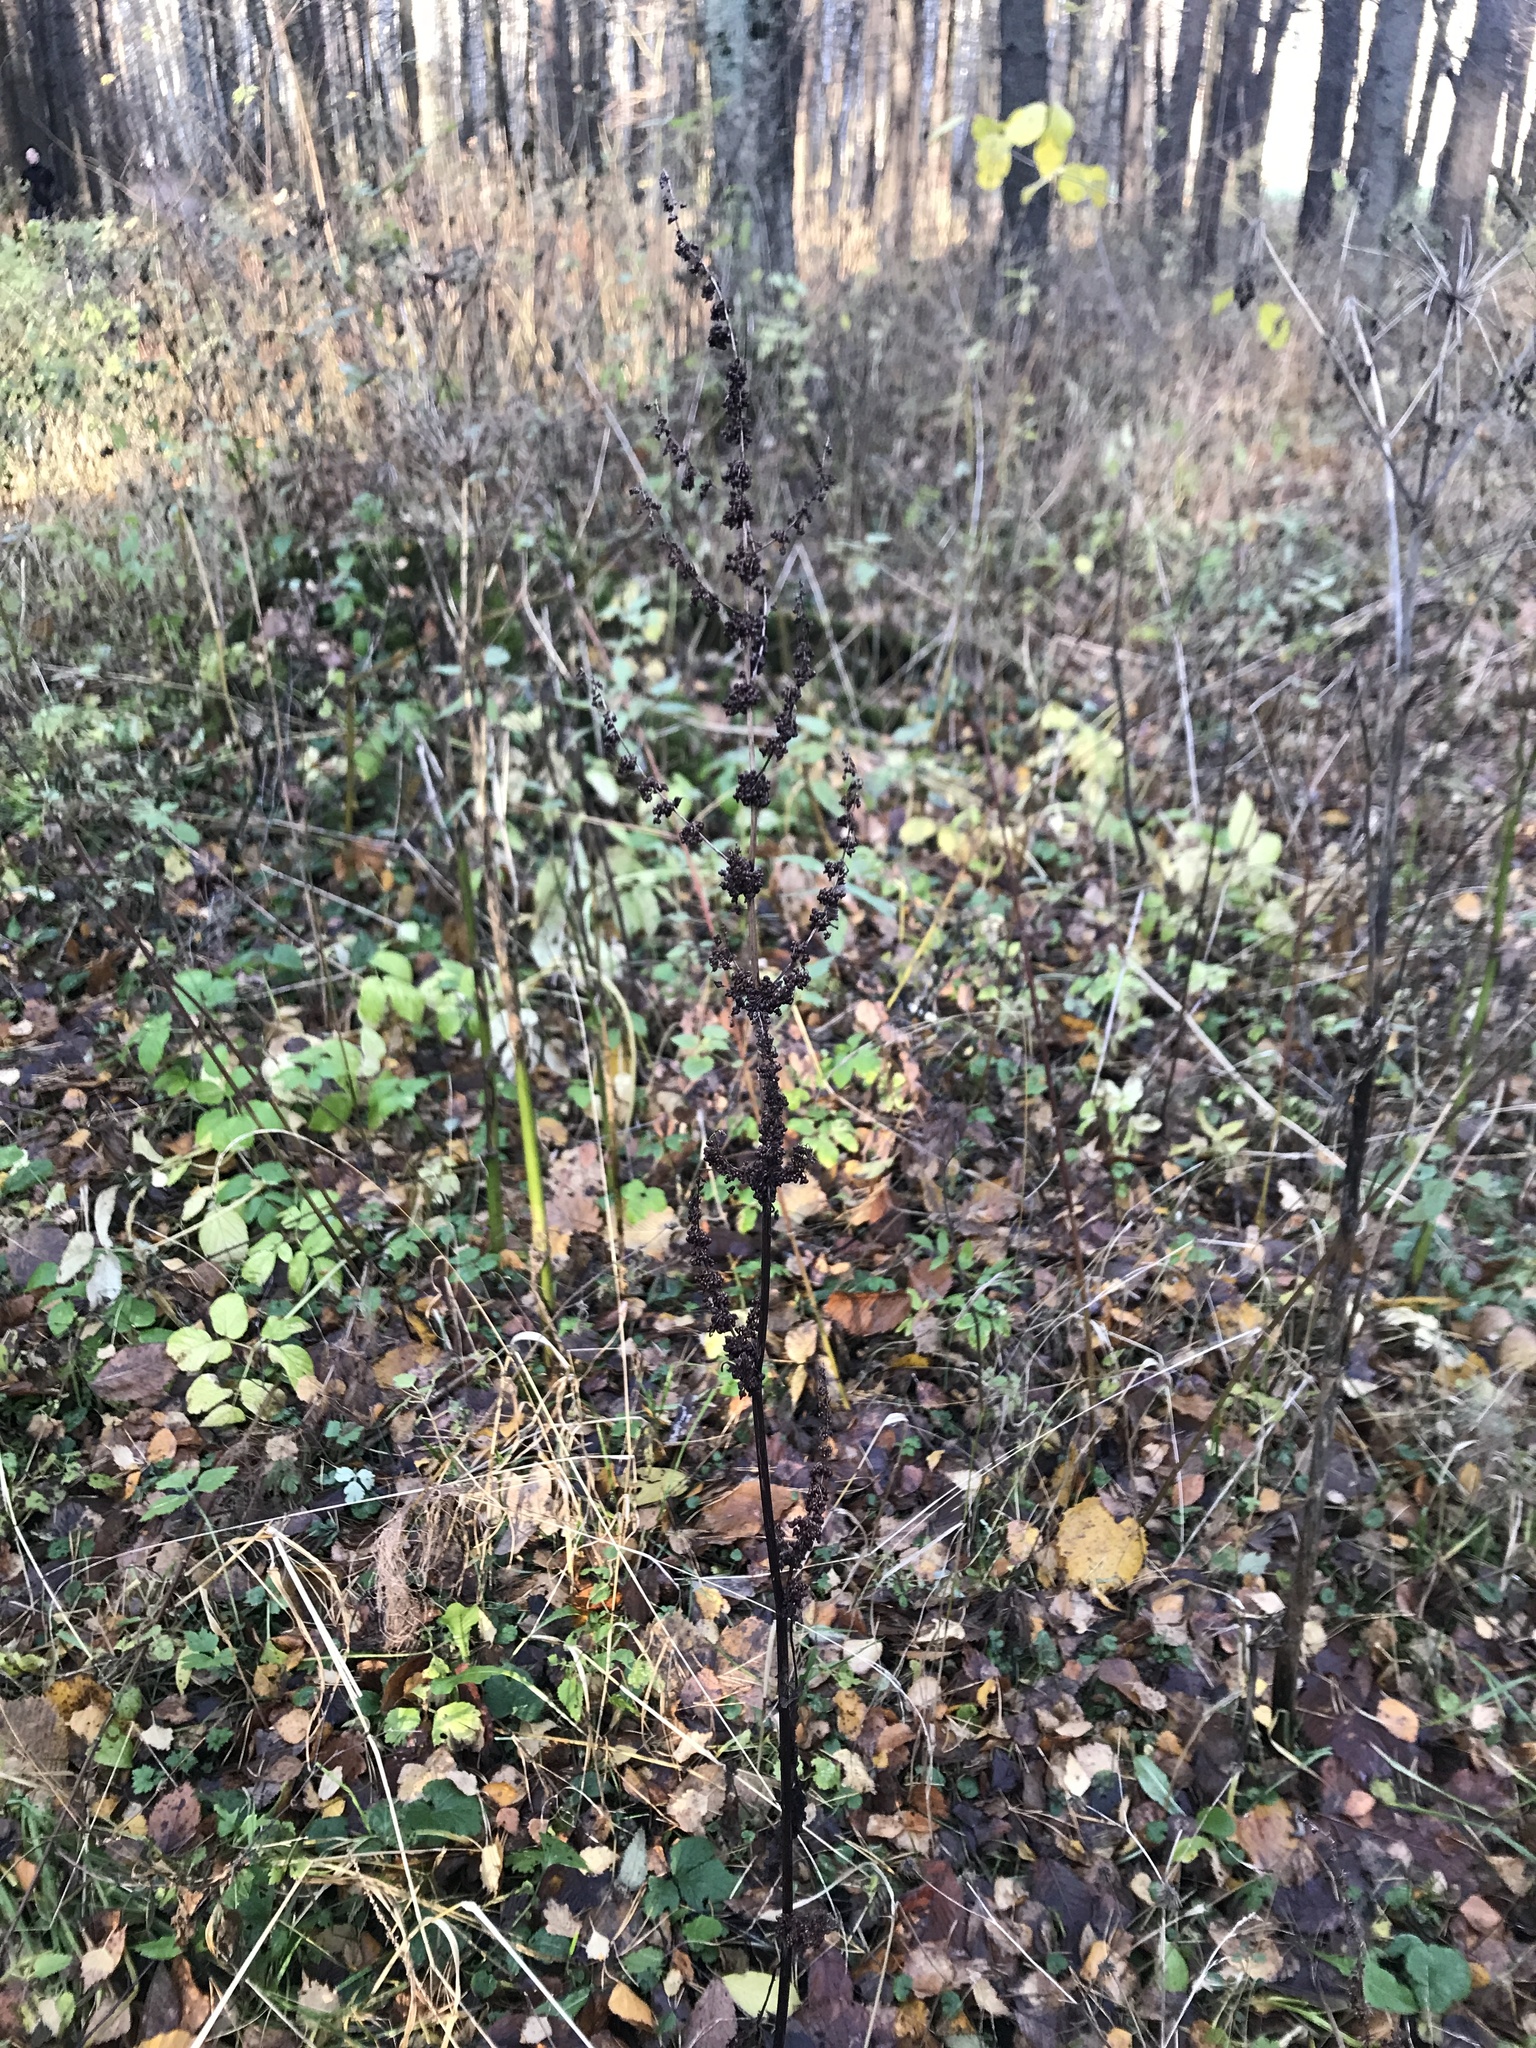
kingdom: Plantae
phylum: Tracheophyta
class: Magnoliopsida
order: Caryophyllales
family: Polygonaceae
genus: Rumex
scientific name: Rumex obtusifolius
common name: Bitter dock
